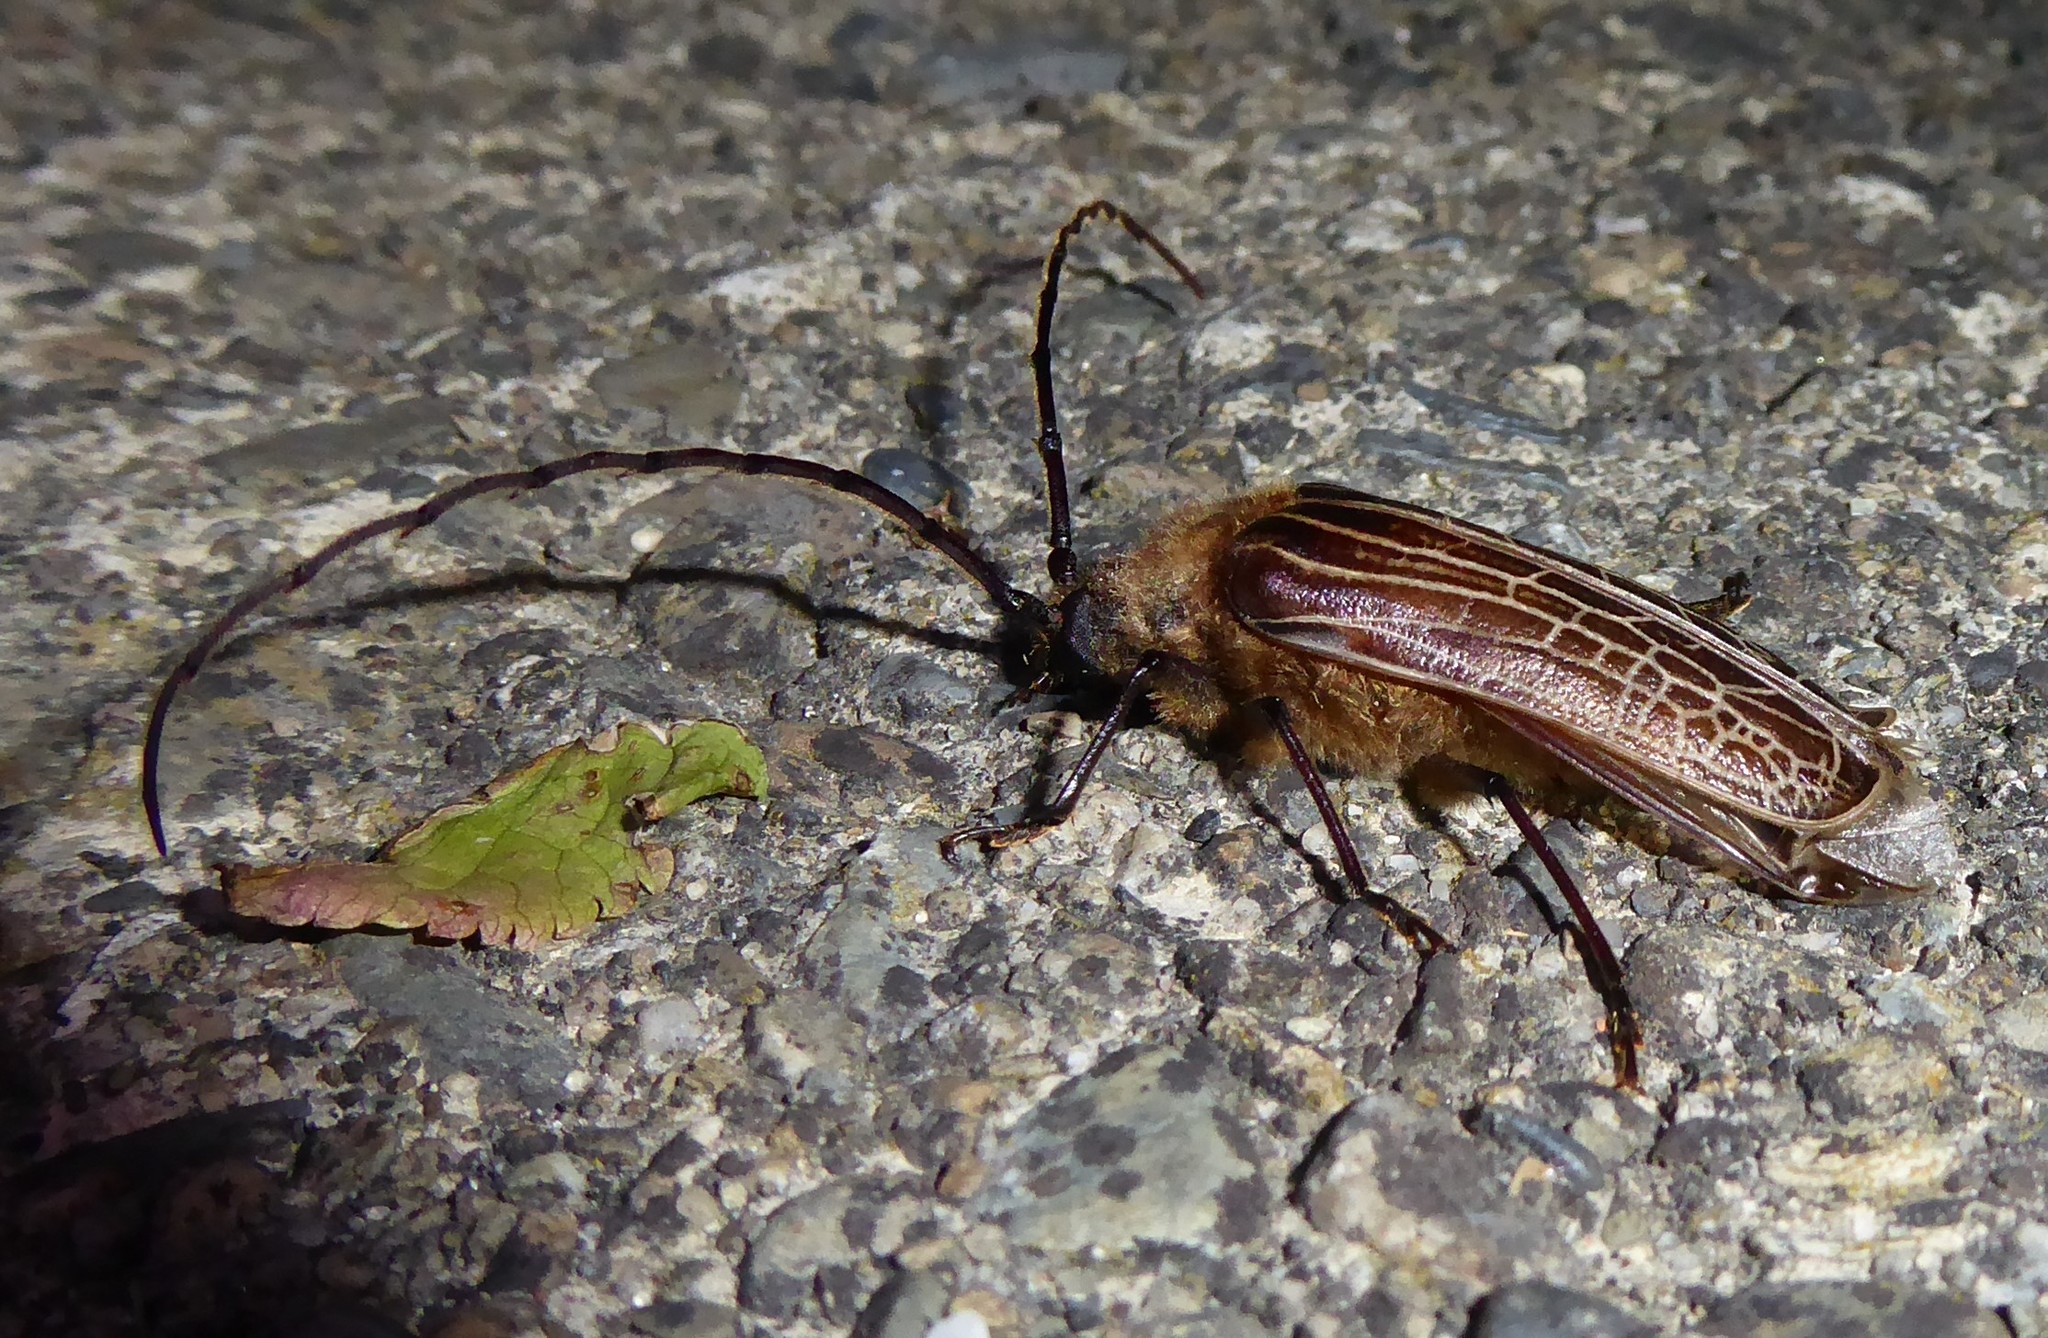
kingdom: Animalia
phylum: Arthropoda
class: Insecta
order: Coleoptera
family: Cerambycidae
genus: Prionoplus
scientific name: Prionoplus reticularis
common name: Huhu beetle
